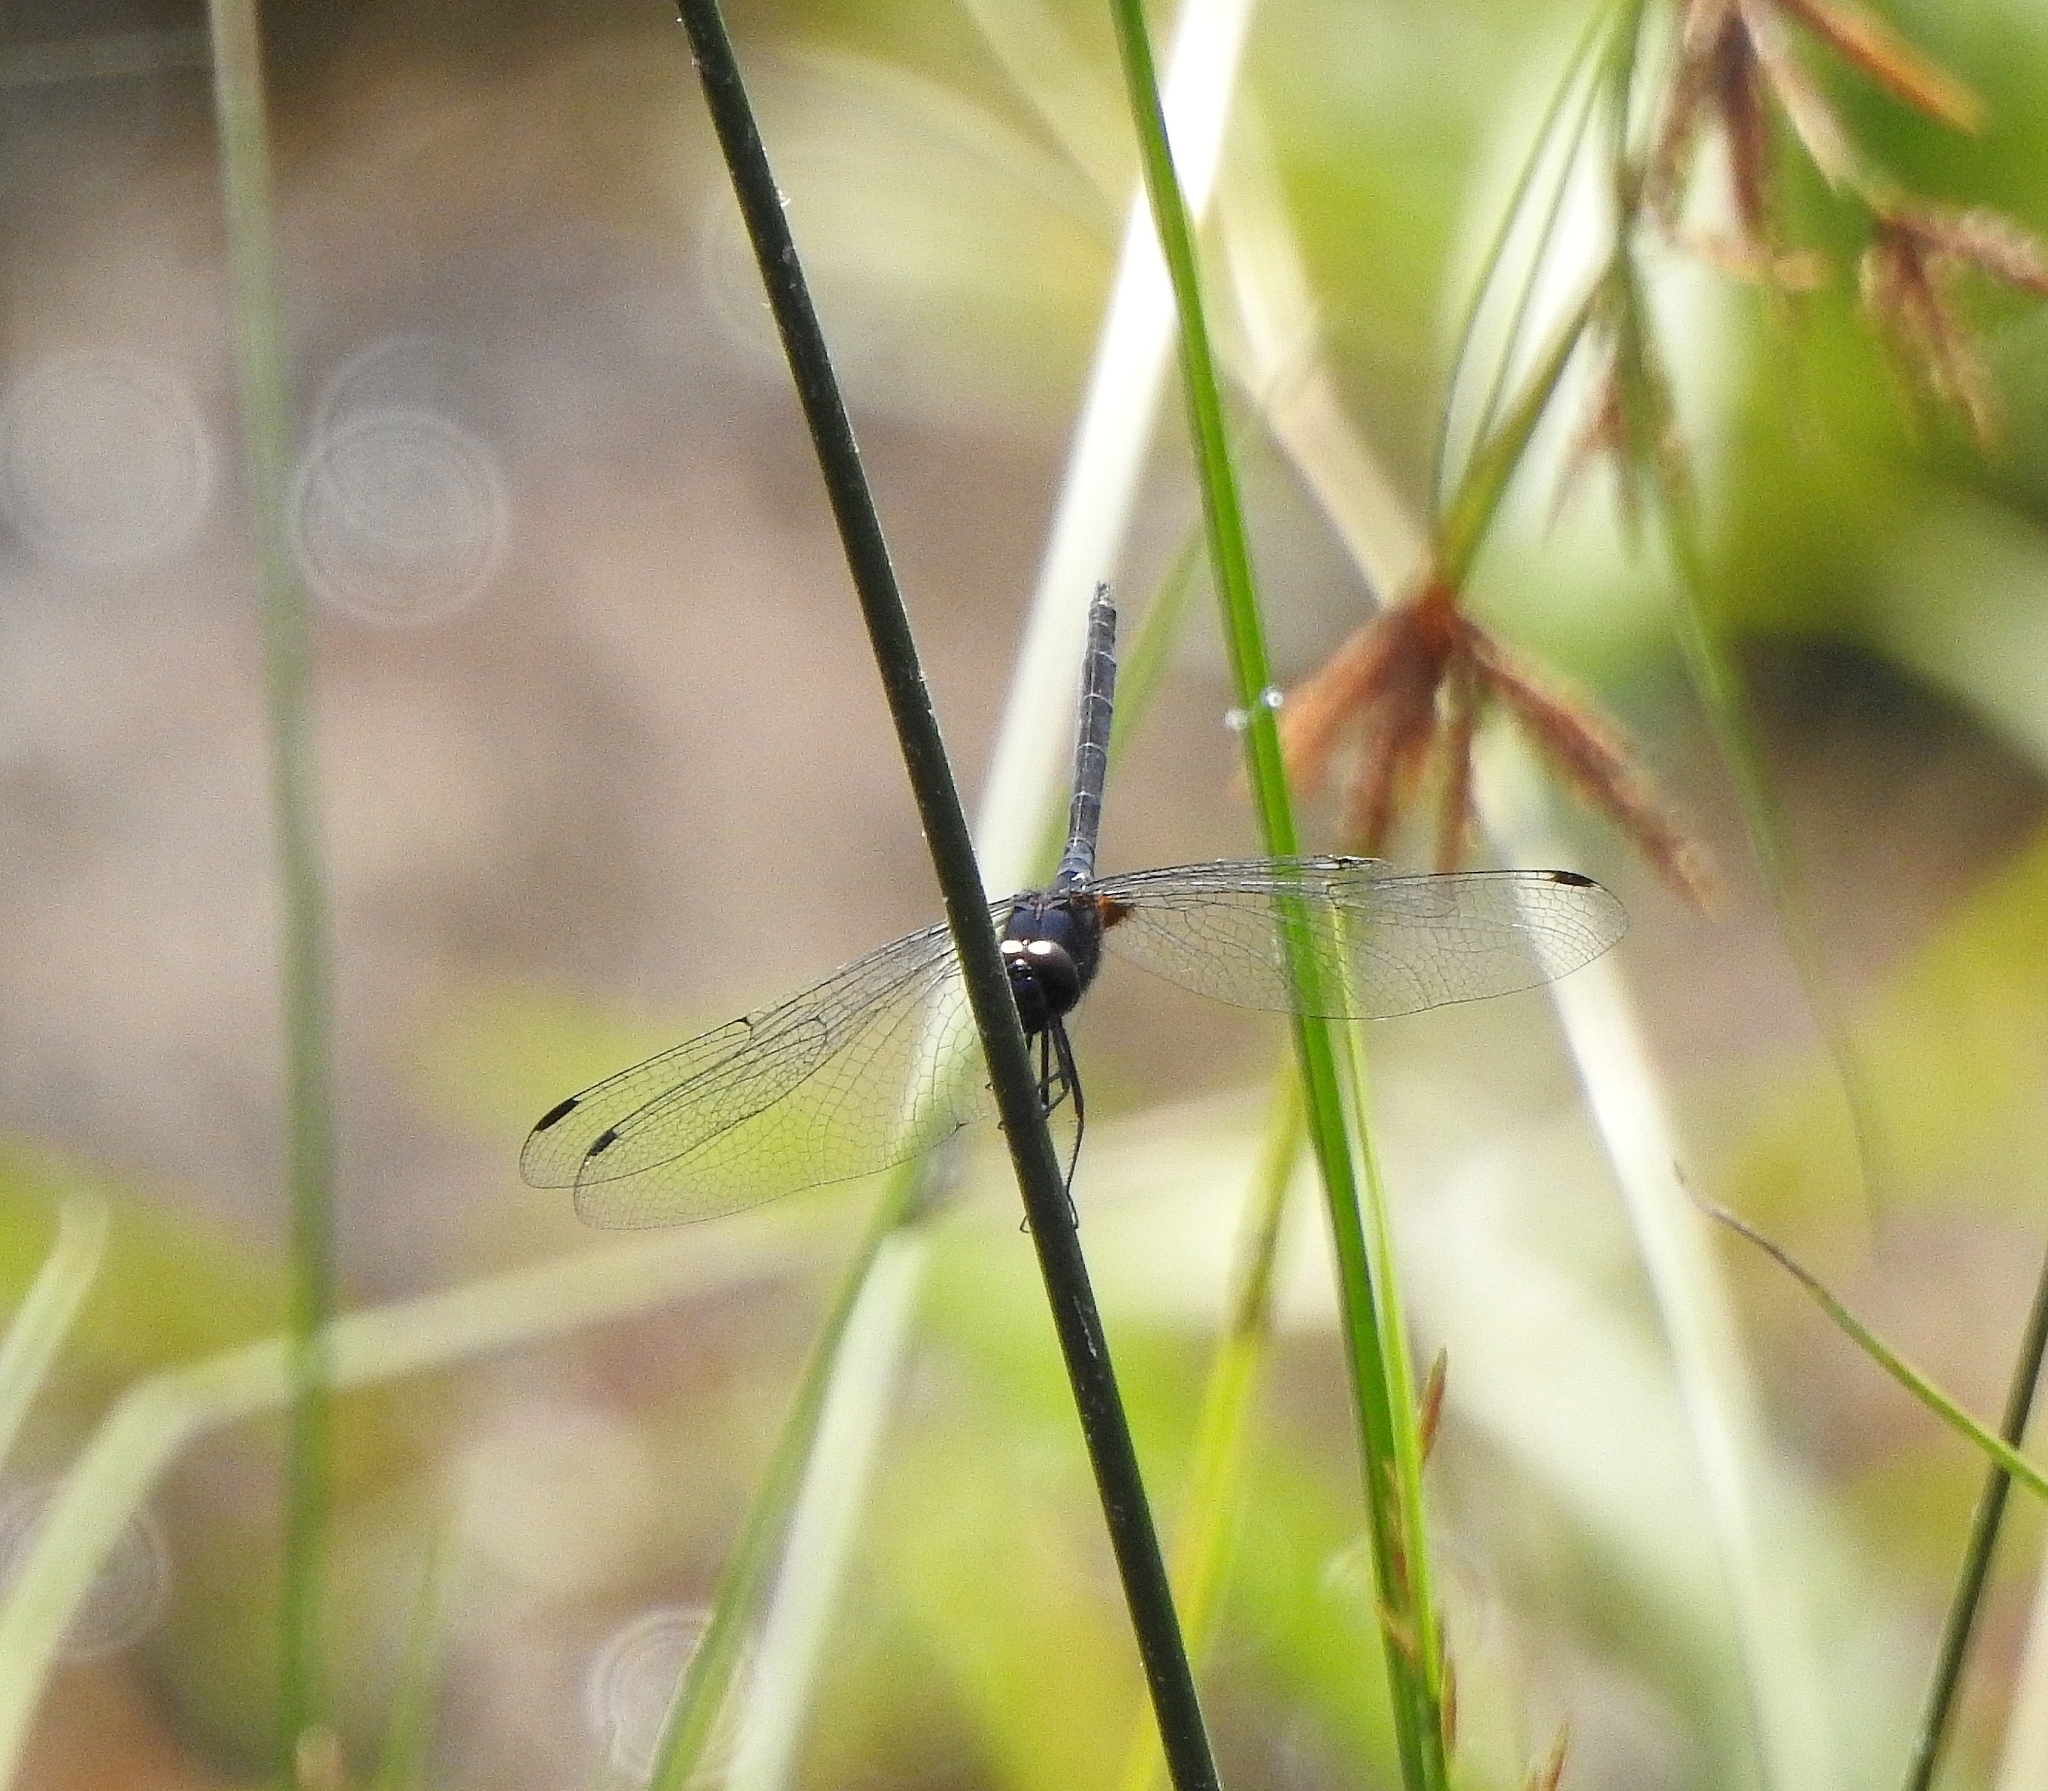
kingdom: Animalia
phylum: Arthropoda
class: Insecta
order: Odonata
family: Libellulidae
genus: Trithemis
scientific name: Trithemis festiva
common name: Indigo dropwing
